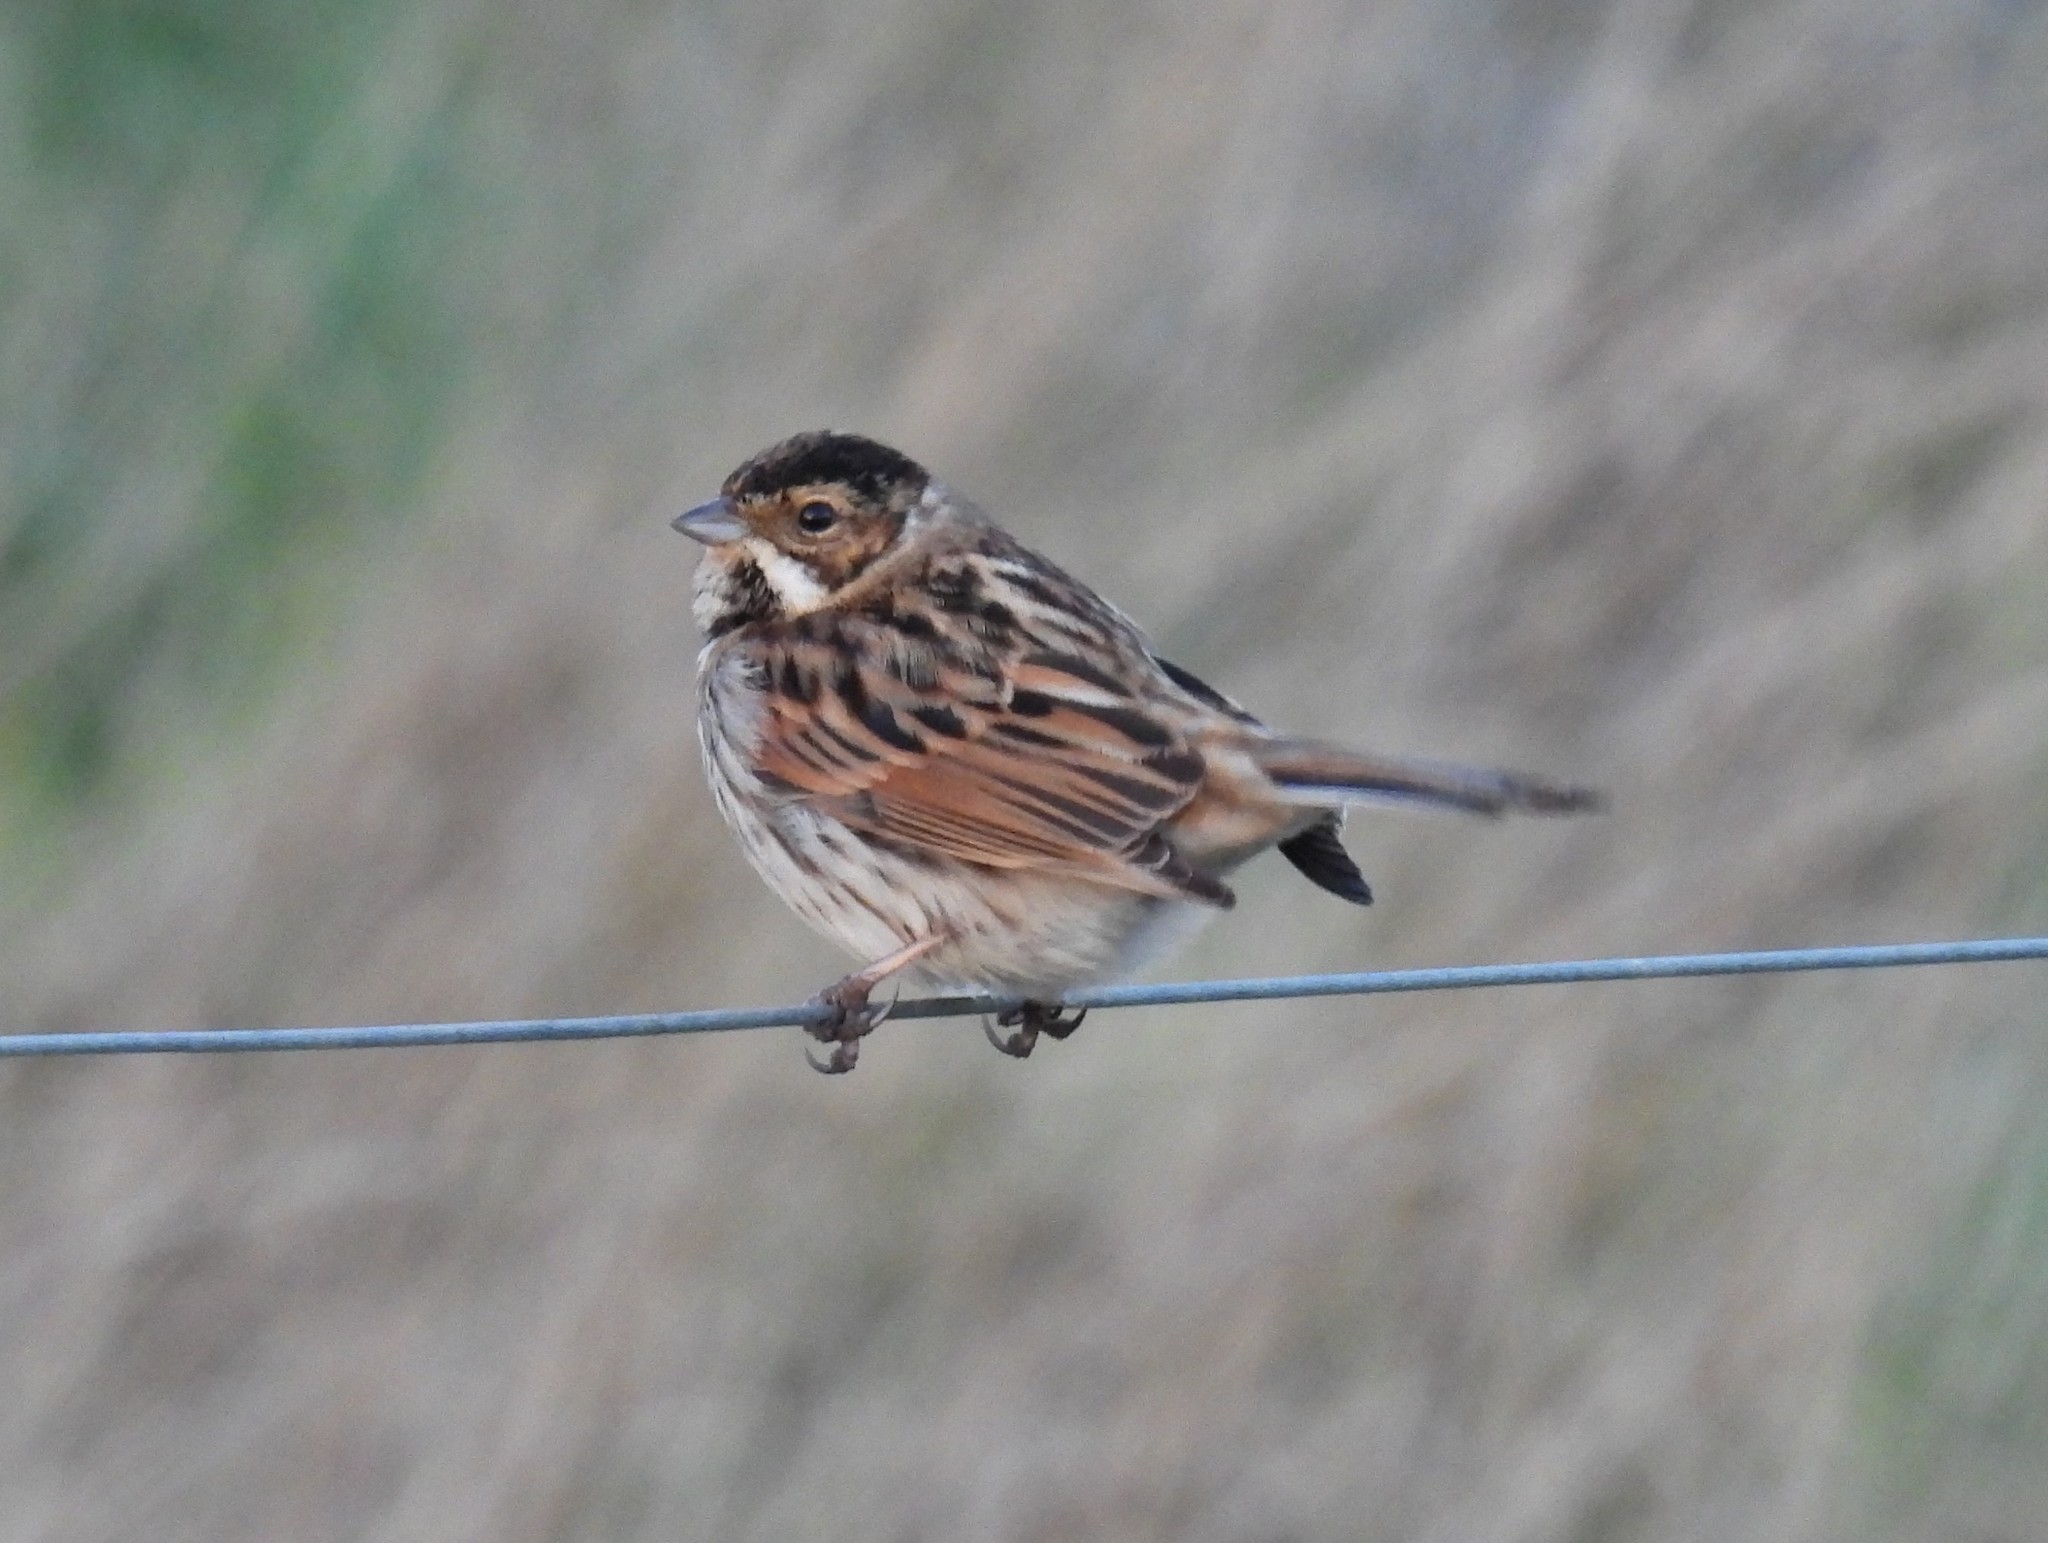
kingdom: Animalia
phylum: Chordata
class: Aves
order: Passeriformes
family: Emberizidae
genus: Emberiza
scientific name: Emberiza schoeniclus
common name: Reed bunting
